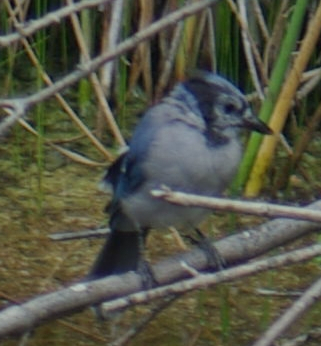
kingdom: Animalia
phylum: Chordata
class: Aves
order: Passeriformes
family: Corvidae
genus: Cyanocitta
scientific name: Cyanocitta cristata
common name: Blue jay
